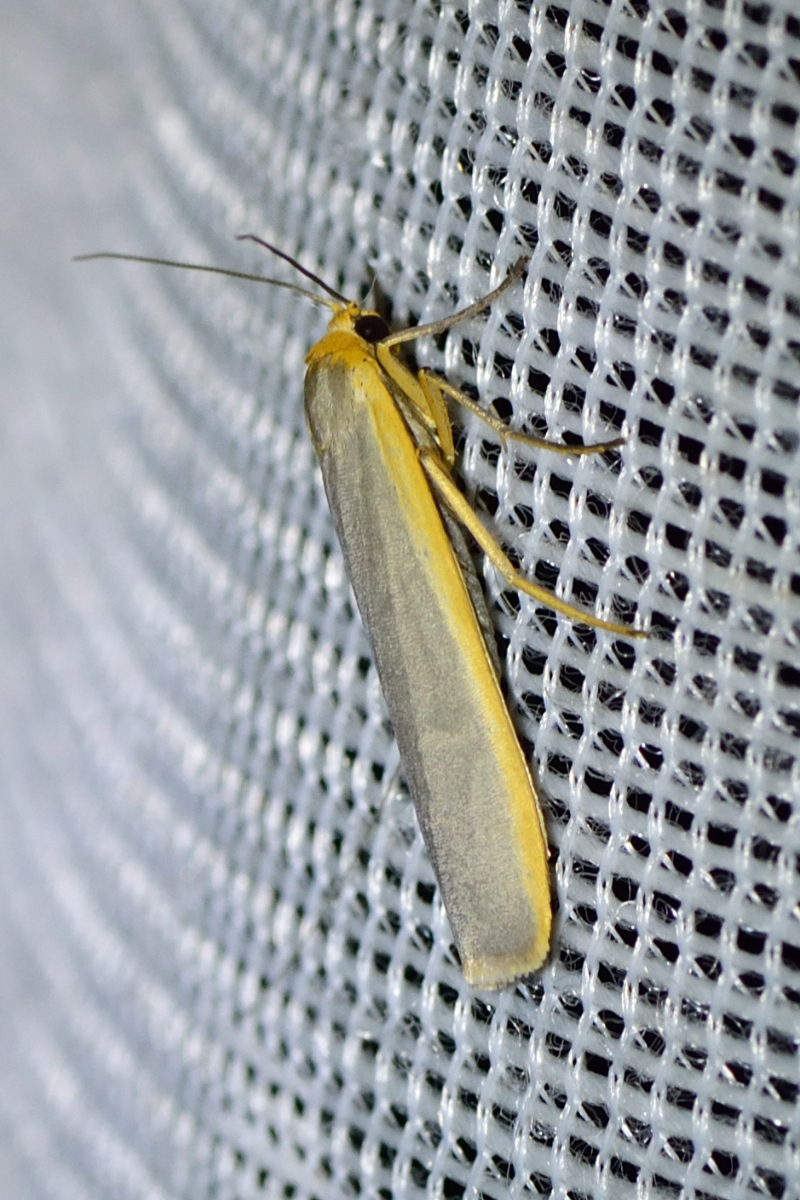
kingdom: Animalia
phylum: Arthropoda
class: Insecta
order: Lepidoptera
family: Erebidae
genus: Manulea
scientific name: Manulea complana
